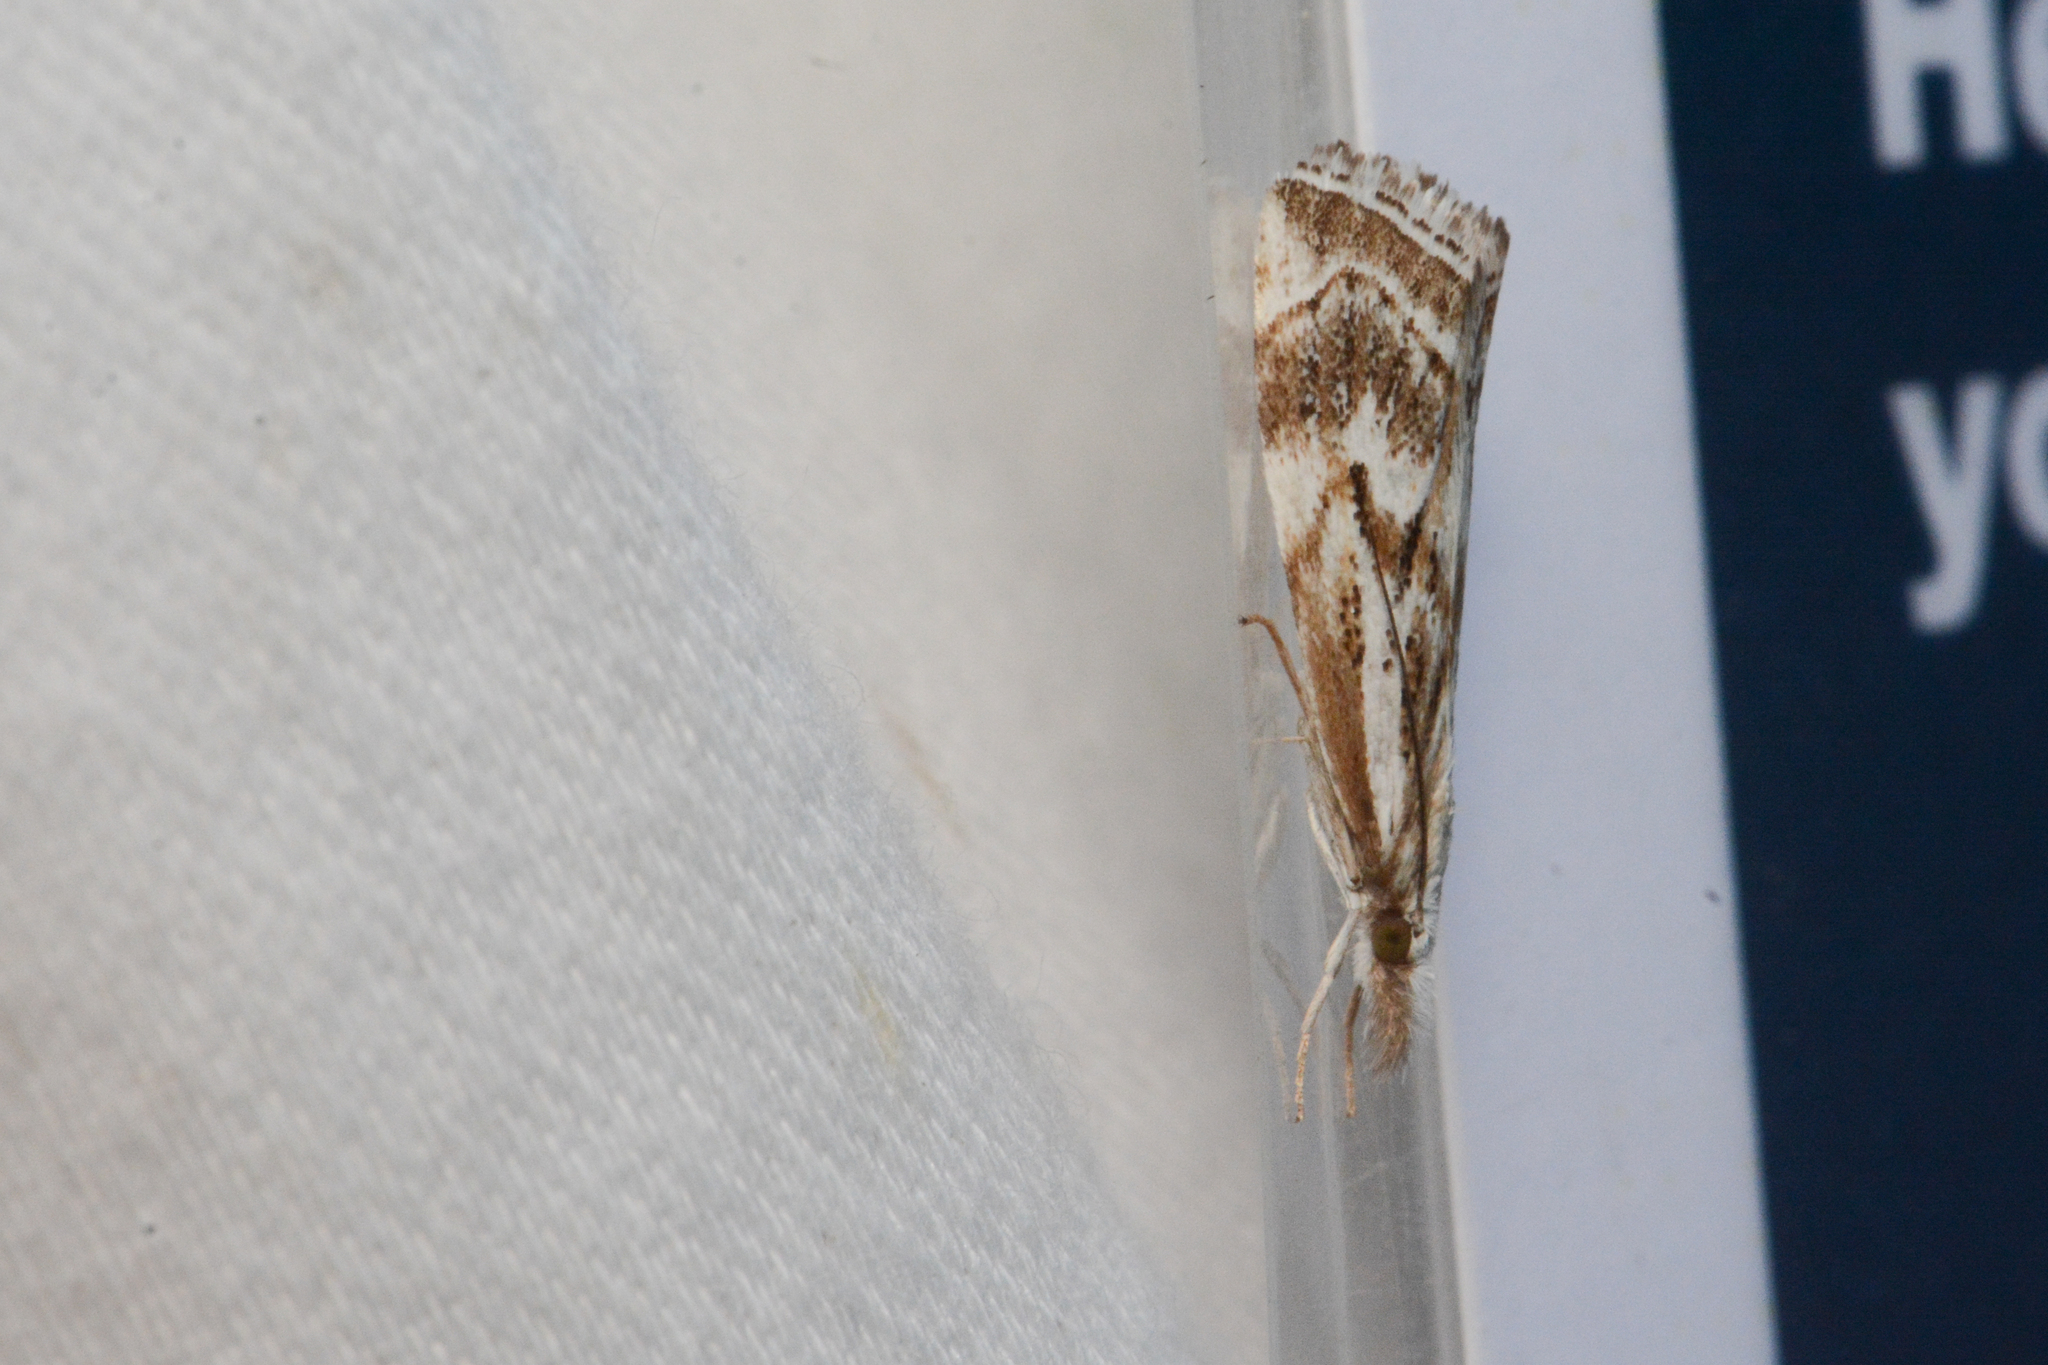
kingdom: Animalia
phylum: Arthropoda
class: Insecta
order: Lepidoptera
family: Crambidae
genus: Catoptria
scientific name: Catoptria oregonicus
